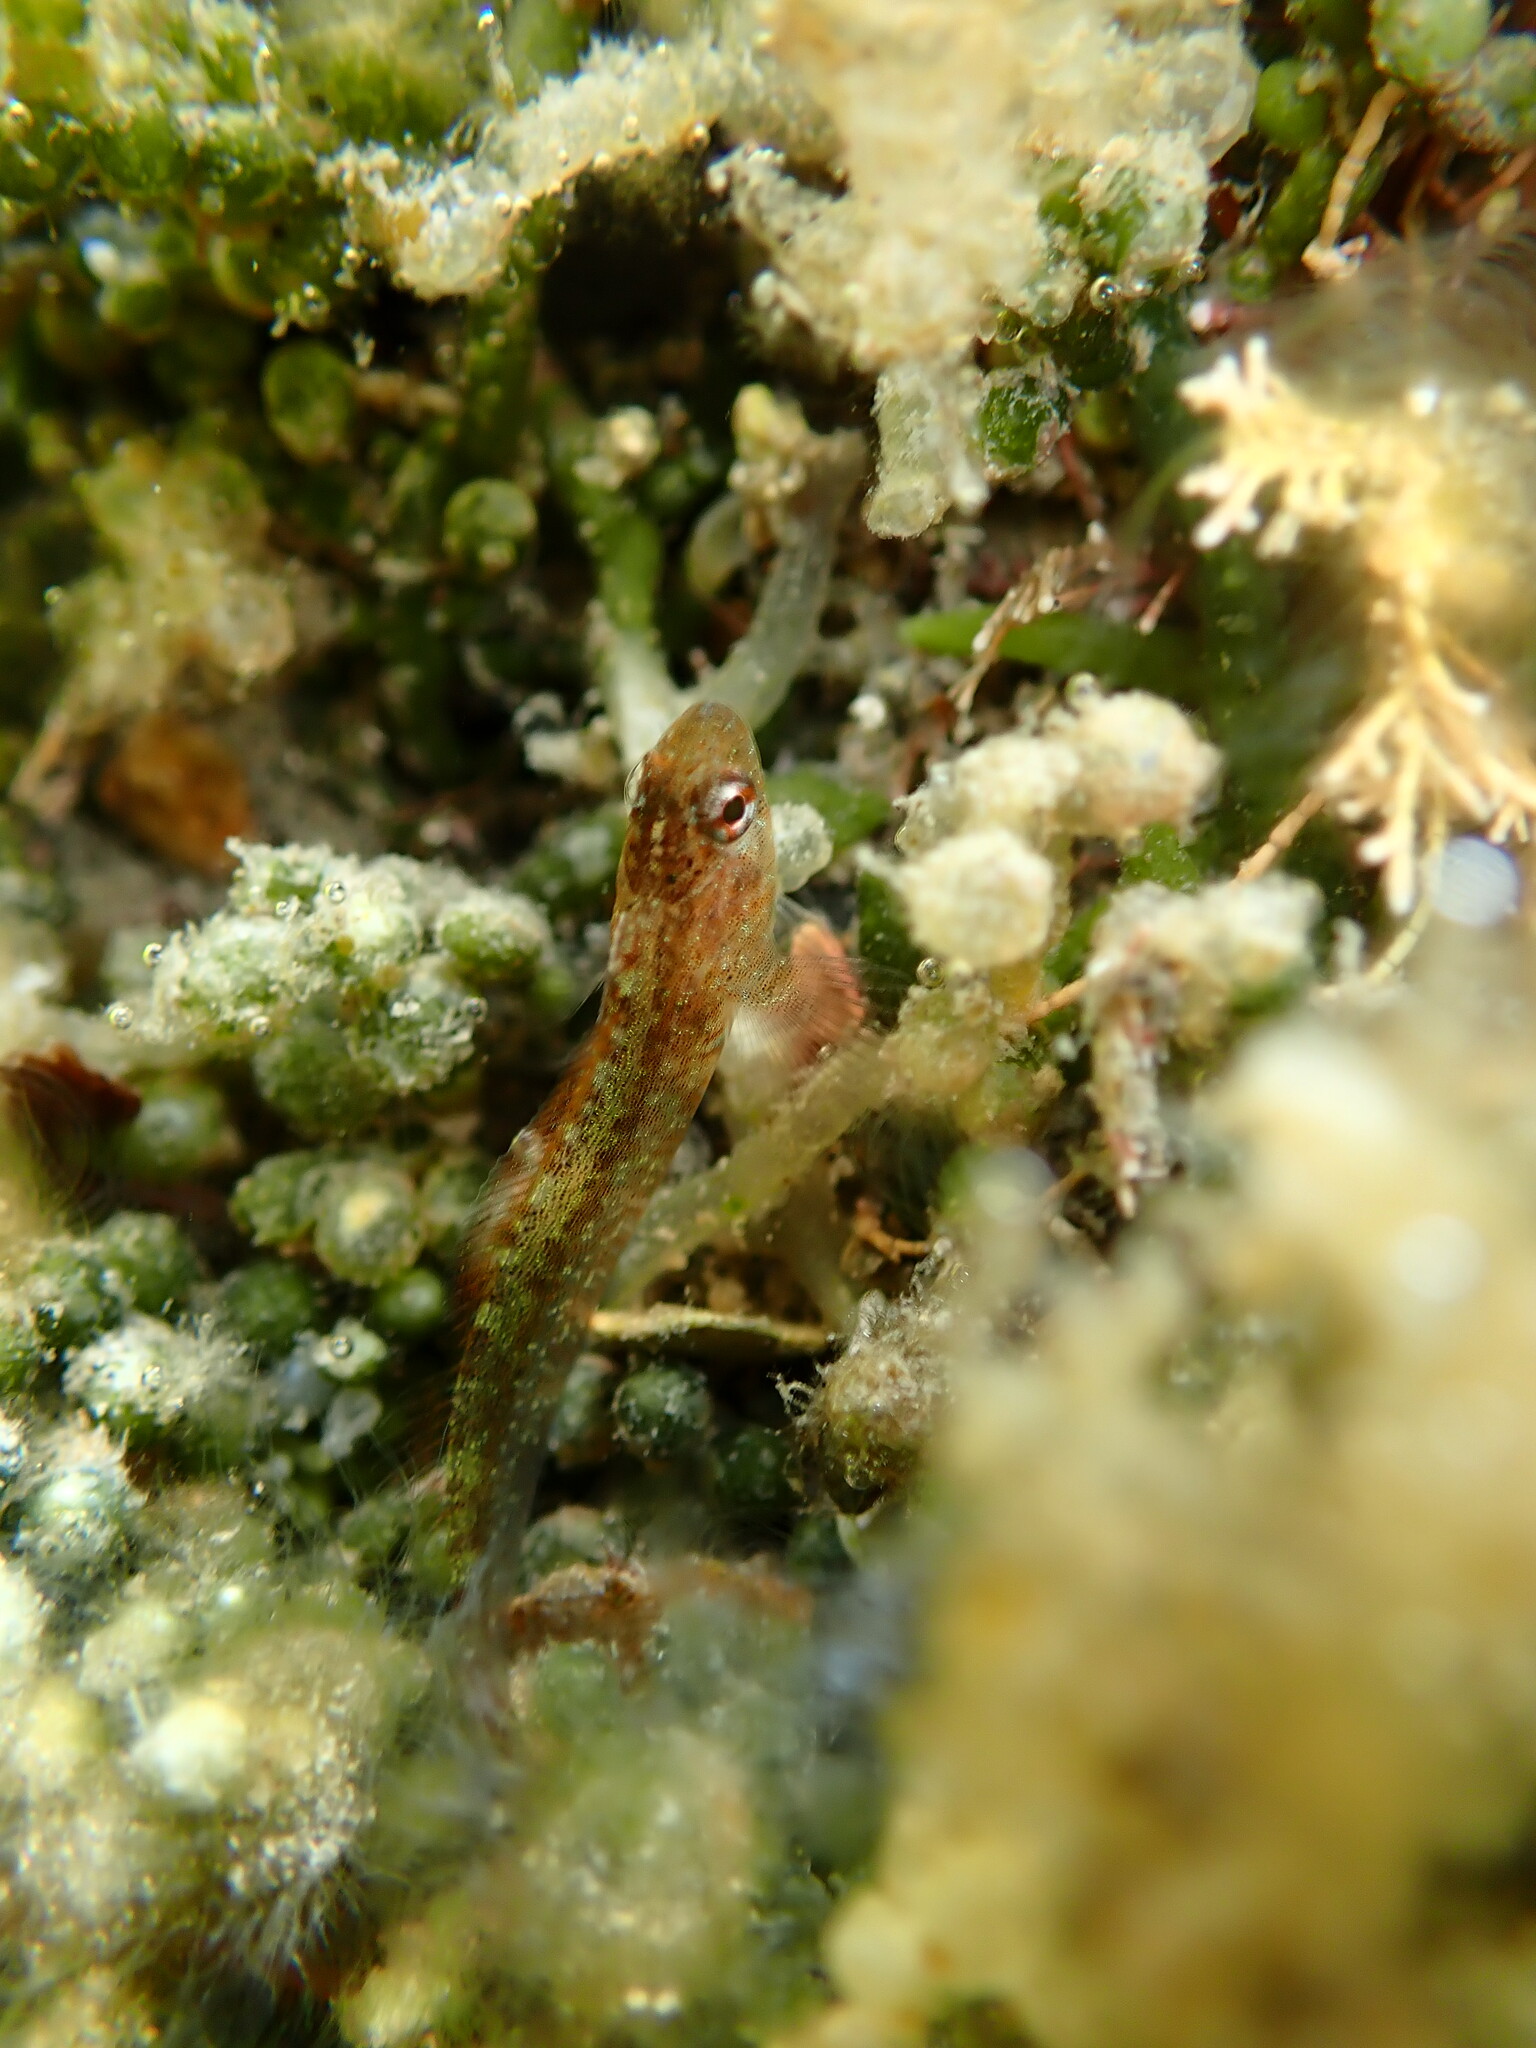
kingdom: Animalia
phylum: Chordata
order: Perciformes
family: Tripterygiidae
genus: Forsterygion
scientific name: Forsterygion lapillum
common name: Common triplefin
